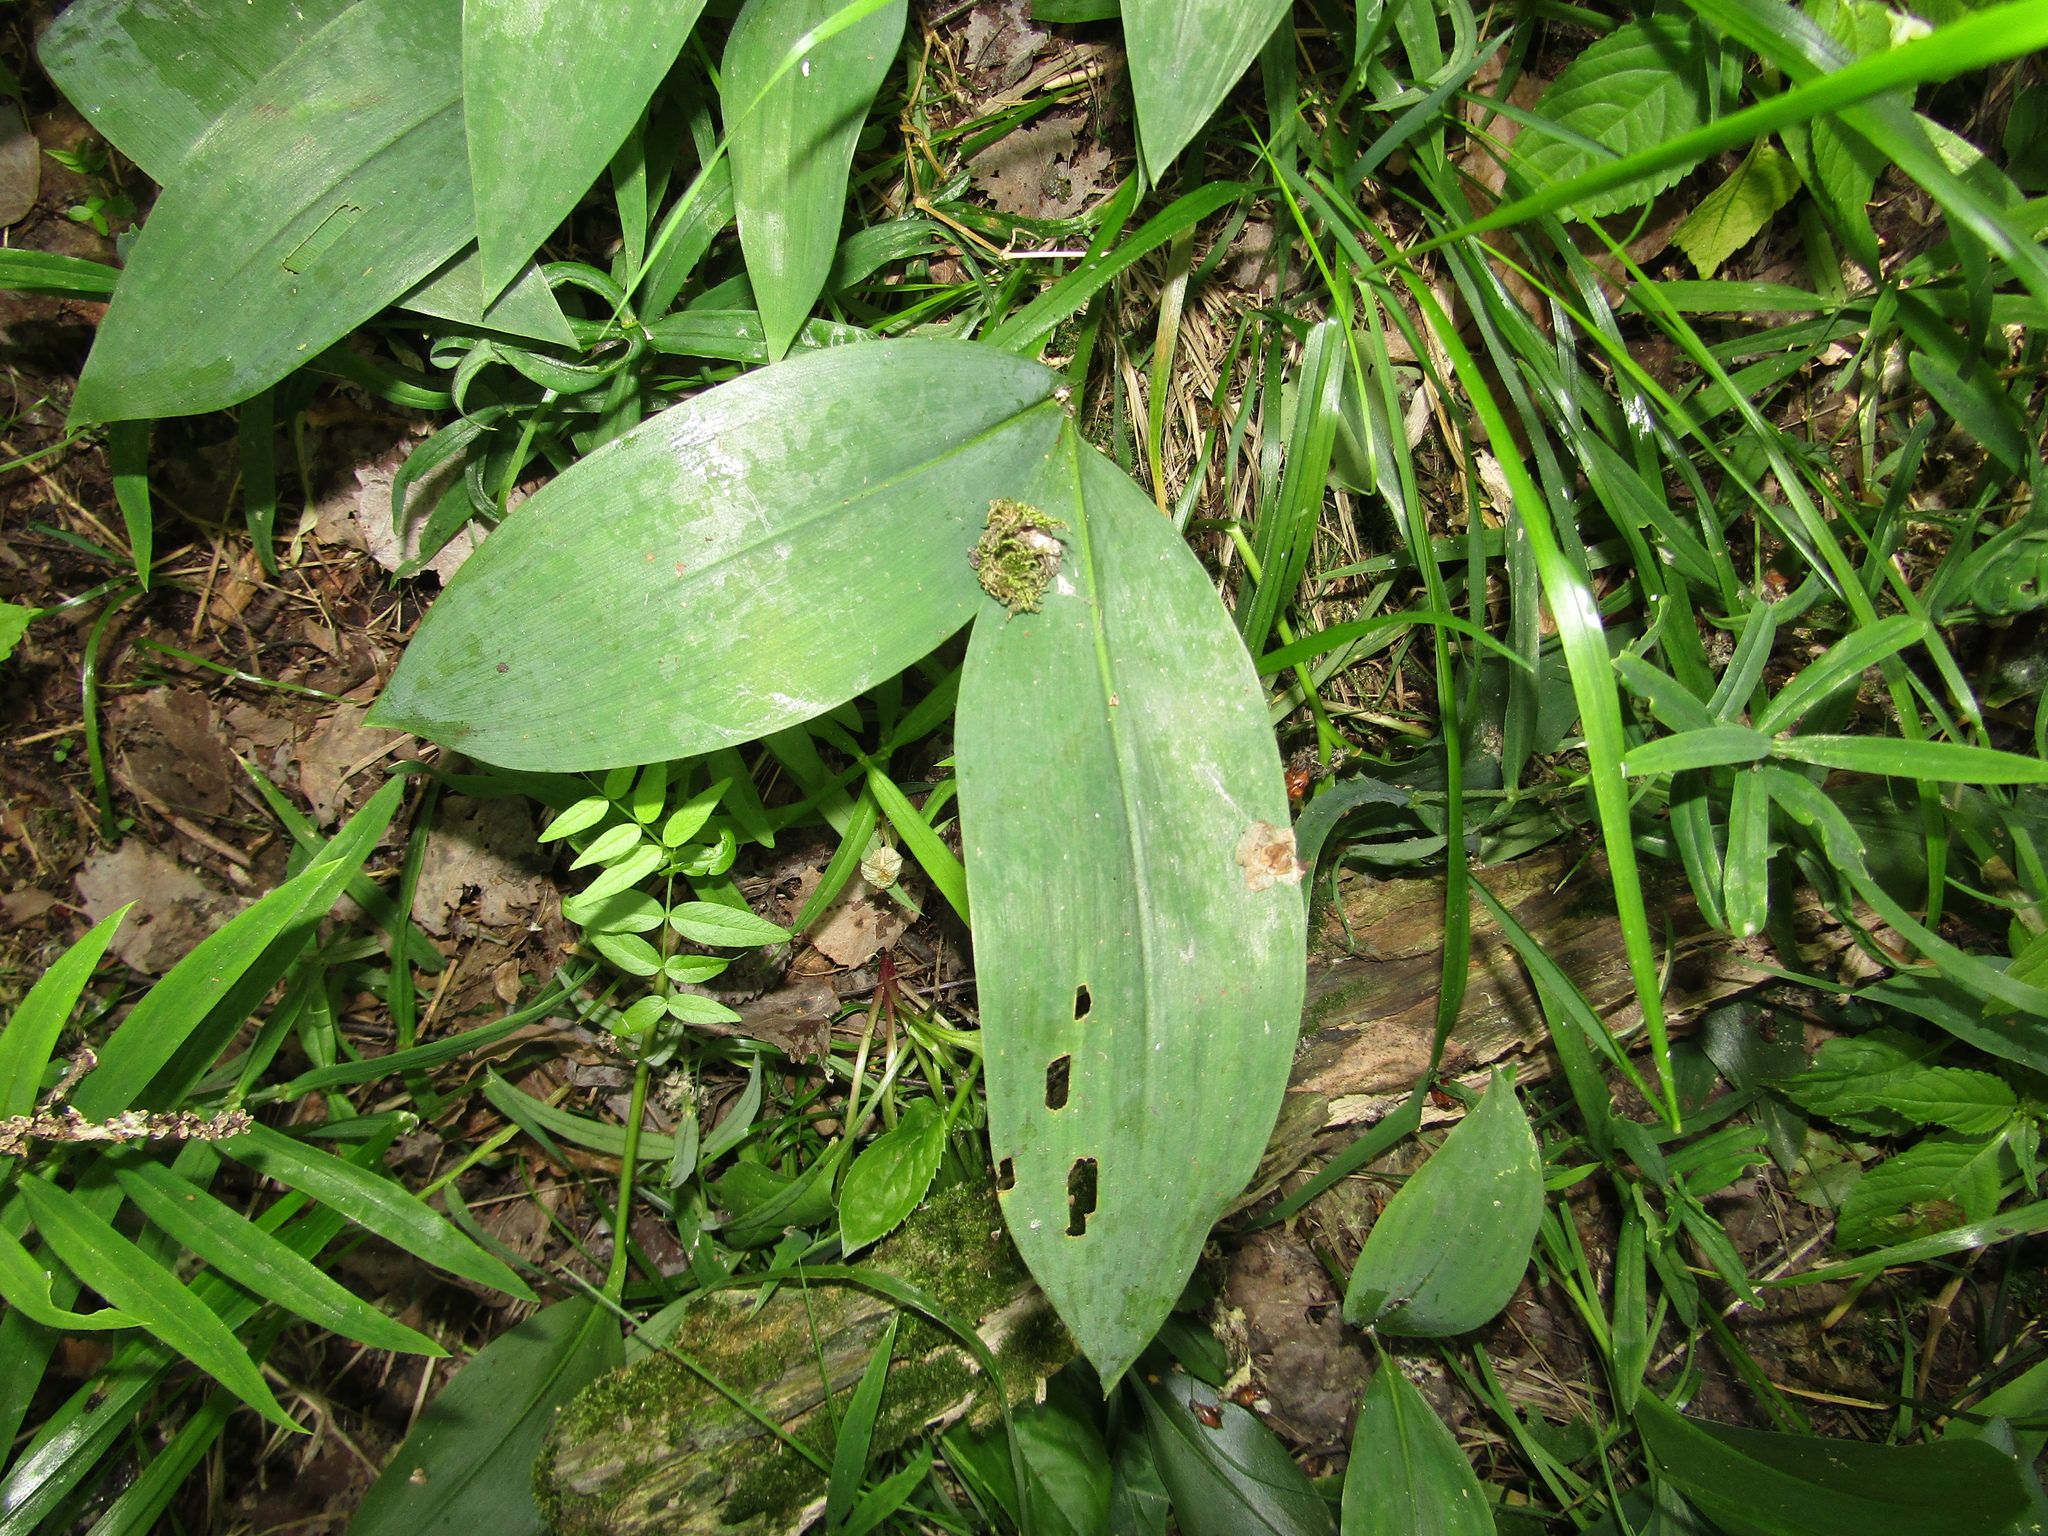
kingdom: Plantae
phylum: Tracheophyta
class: Liliopsida
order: Asparagales
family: Asparagaceae
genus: Convallaria
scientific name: Convallaria majalis
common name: Lily-of-the-valley
